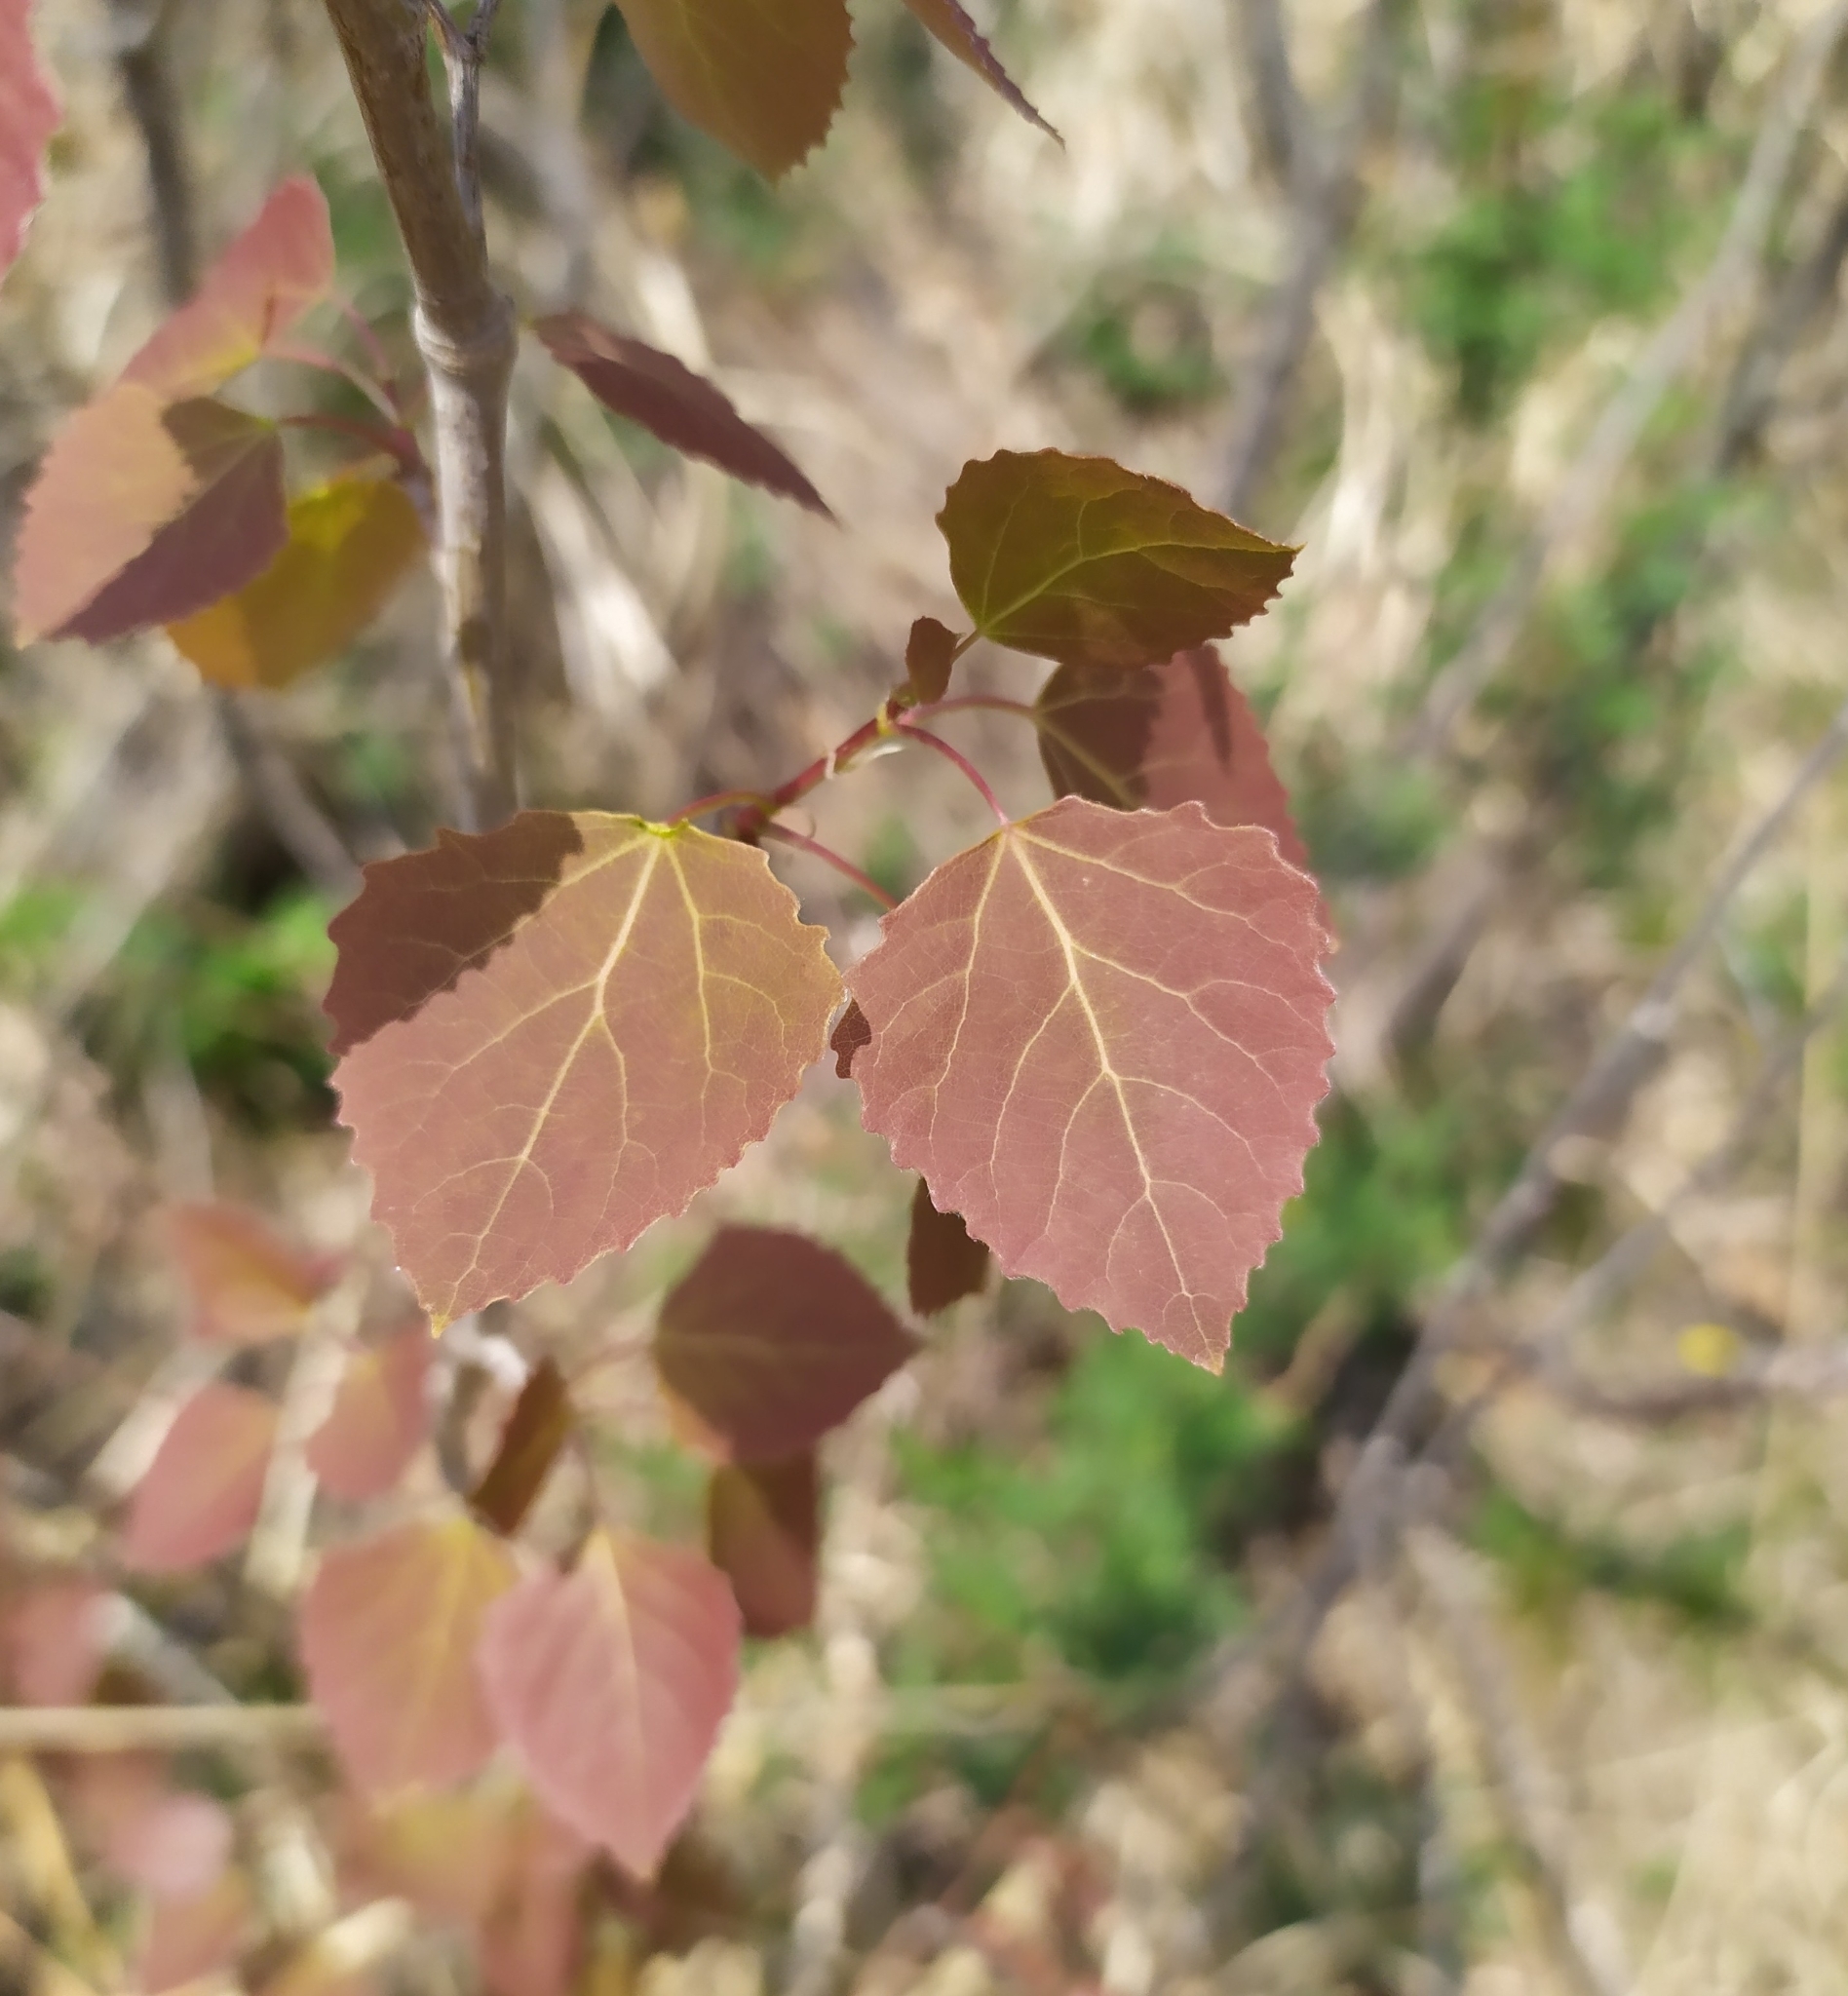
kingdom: Plantae
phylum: Tracheophyta
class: Magnoliopsida
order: Malpighiales
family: Salicaceae
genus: Populus
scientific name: Populus tremula
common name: European aspen
